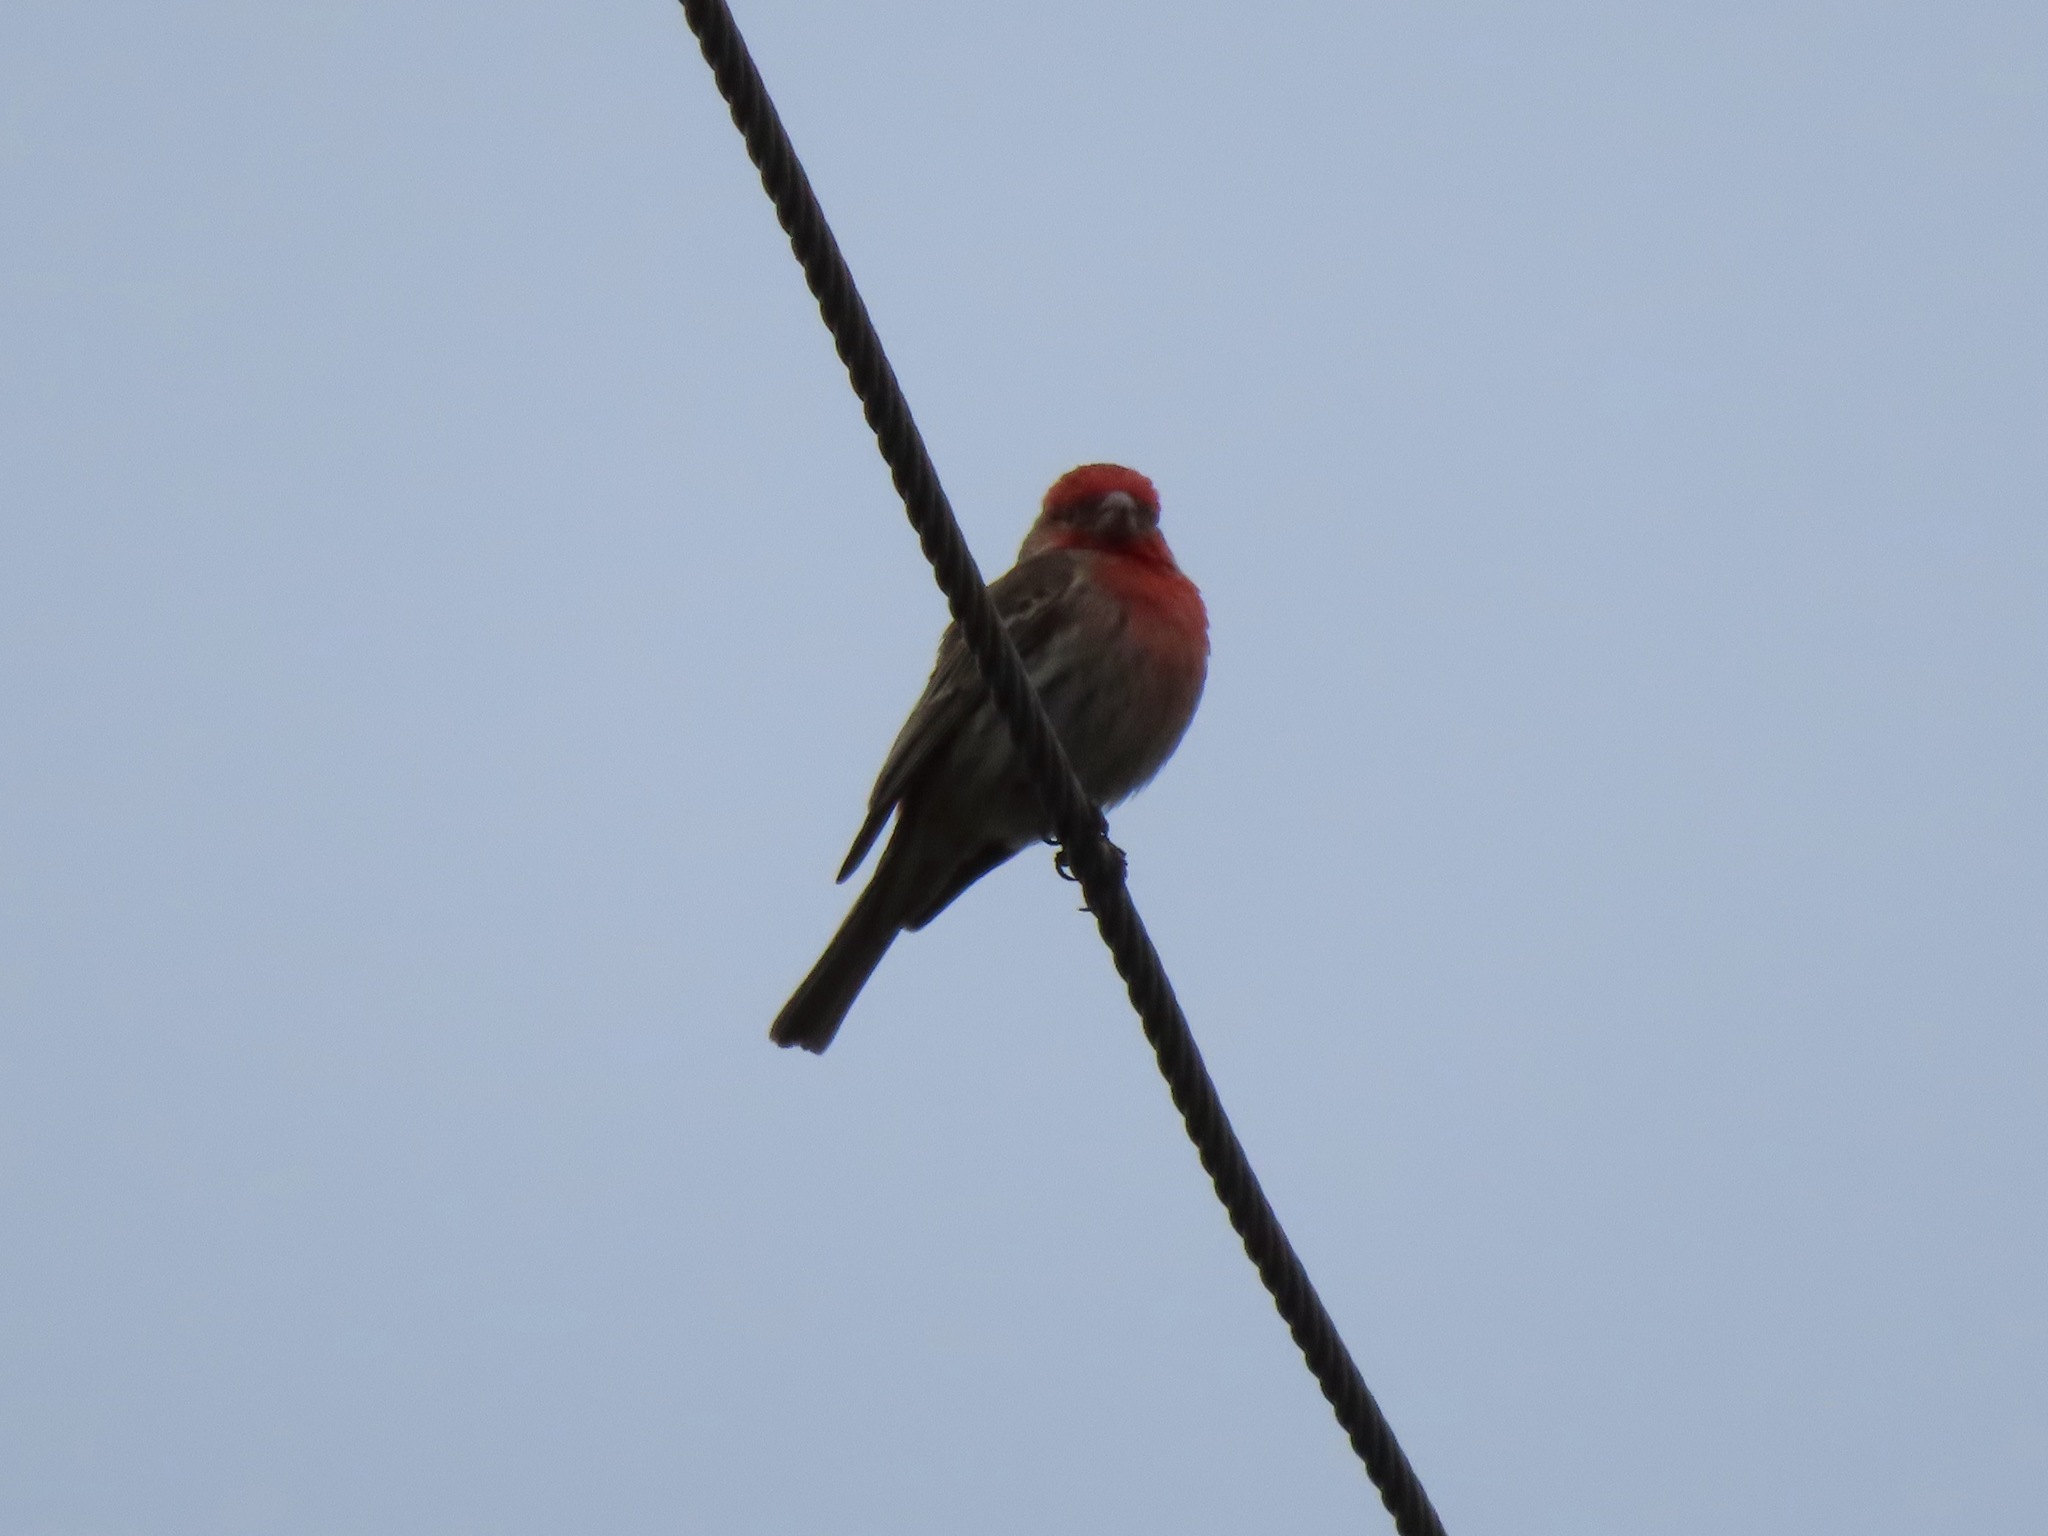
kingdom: Animalia
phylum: Chordata
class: Aves
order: Passeriformes
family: Fringillidae
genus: Haemorhous
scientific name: Haemorhous mexicanus
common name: House finch
